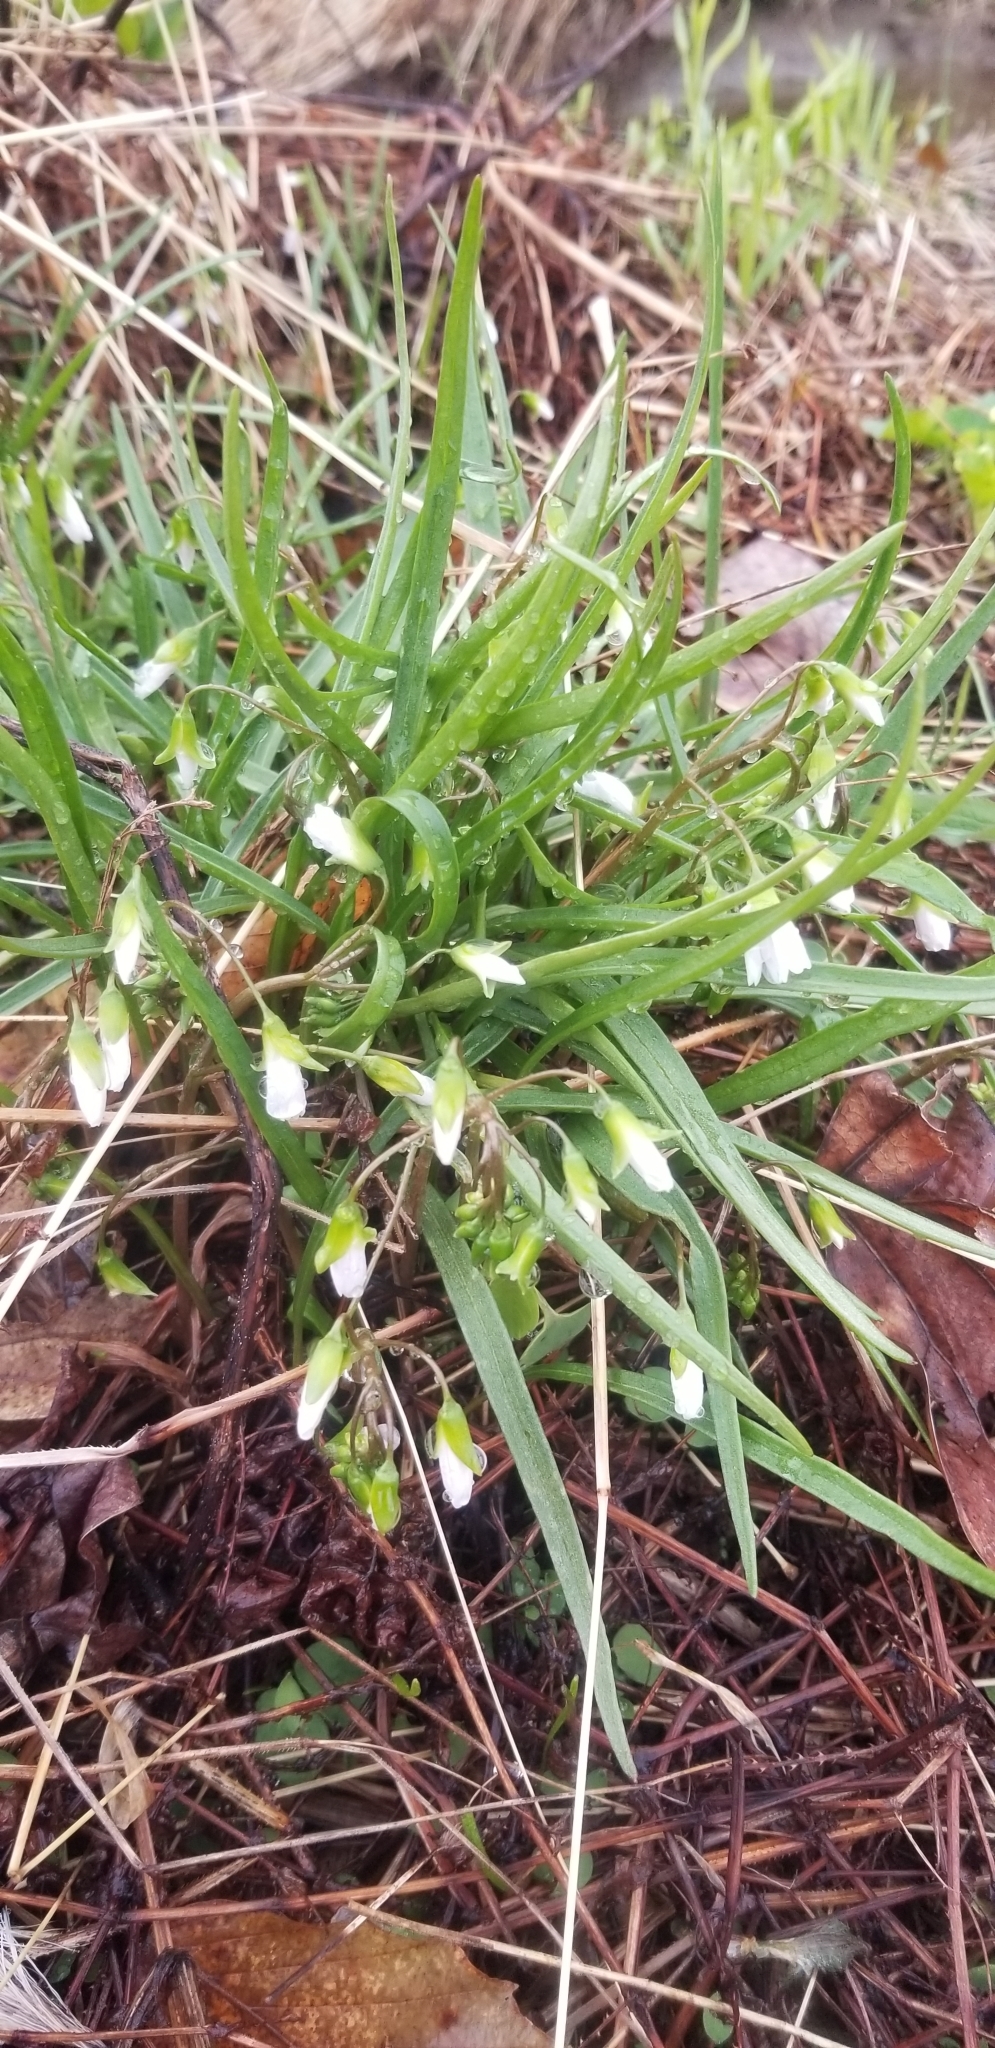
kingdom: Plantae
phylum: Tracheophyta
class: Magnoliopsida
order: Caryophyllales
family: Montiaceae
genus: Claytonia
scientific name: Claytonia virginica
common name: Virginia springbeauty
